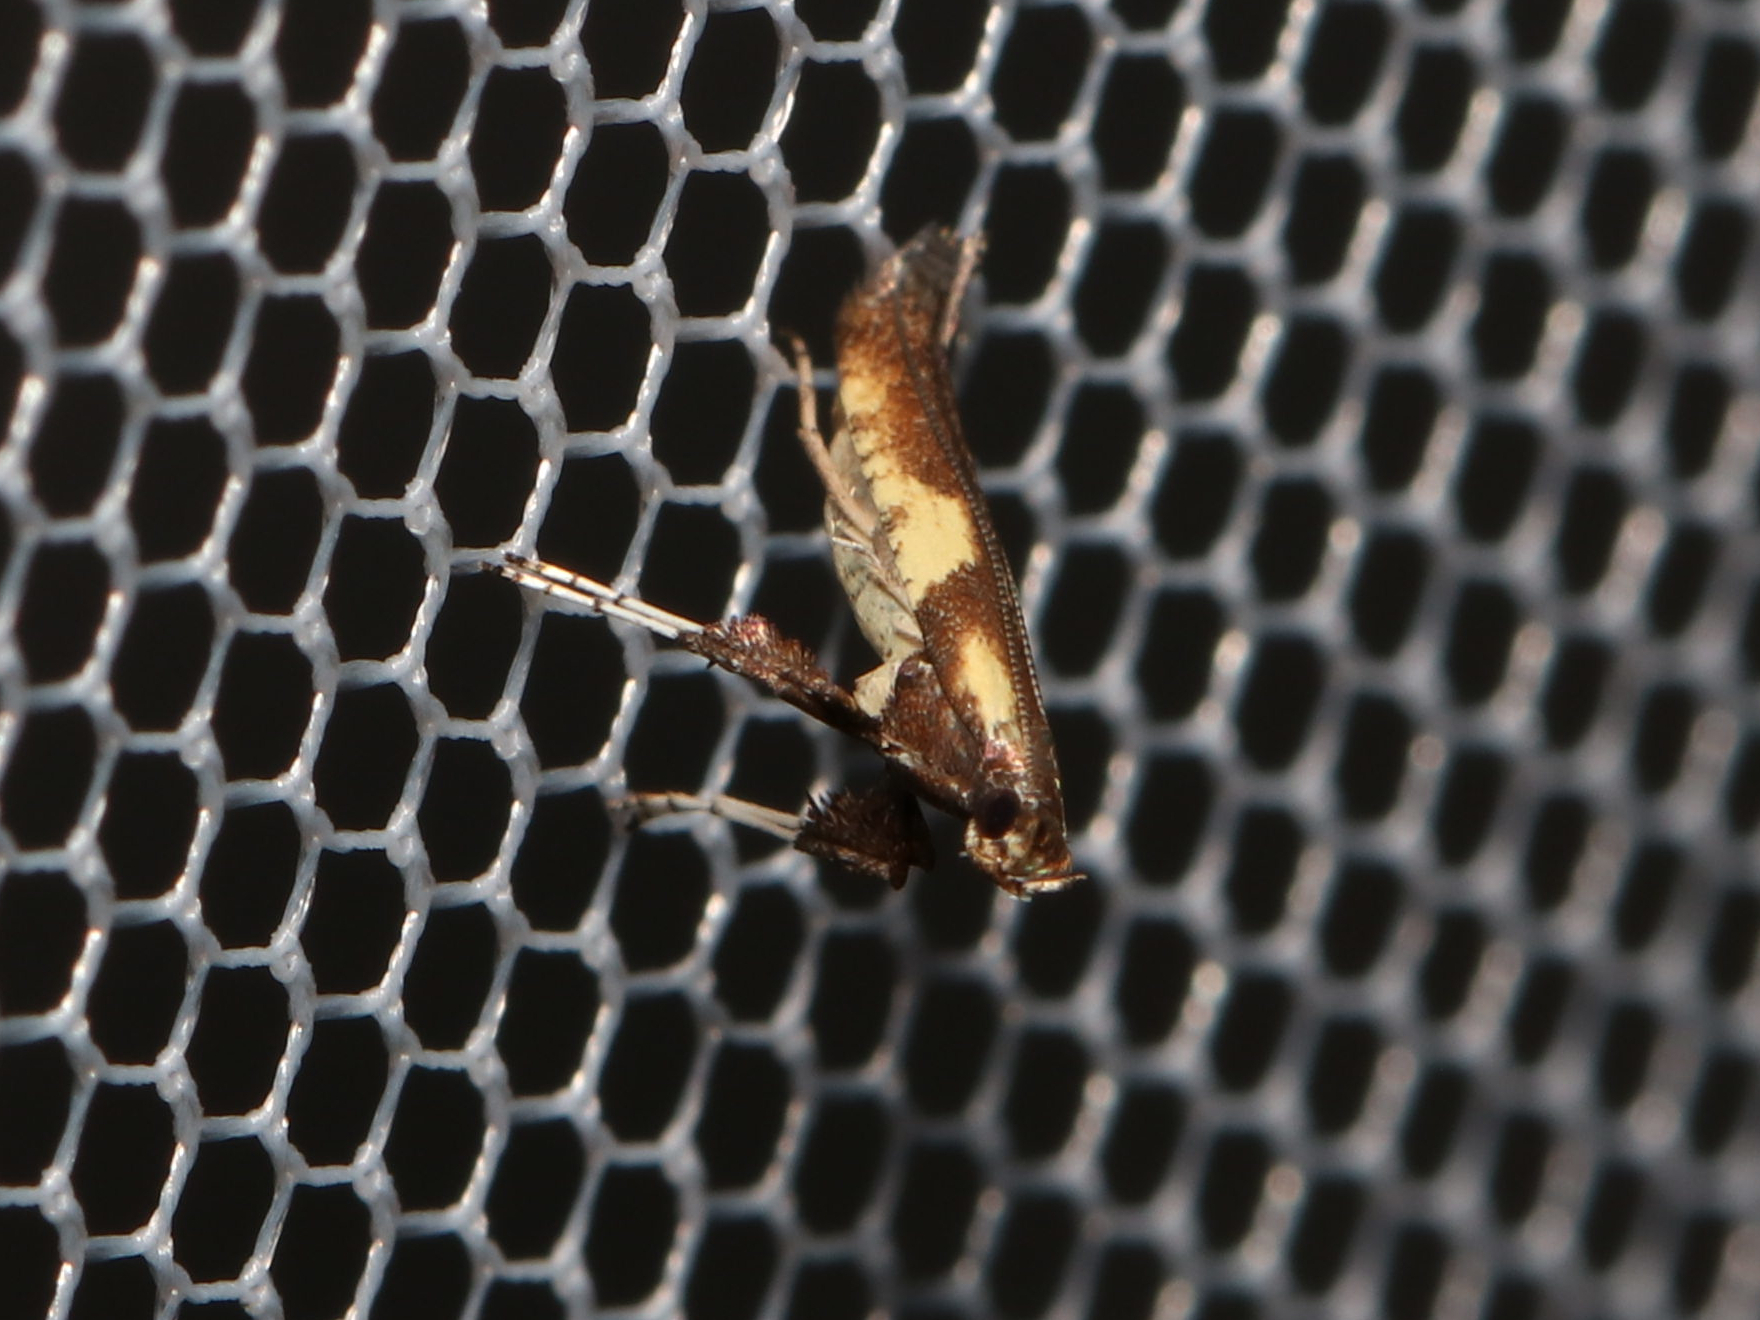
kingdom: Animalia
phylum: Arthropoda
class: Insecta
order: Lepidoptera
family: Gracillariidae
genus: Caloptilia
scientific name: Caloptilia blandella
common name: Walnut caloptilia moth
